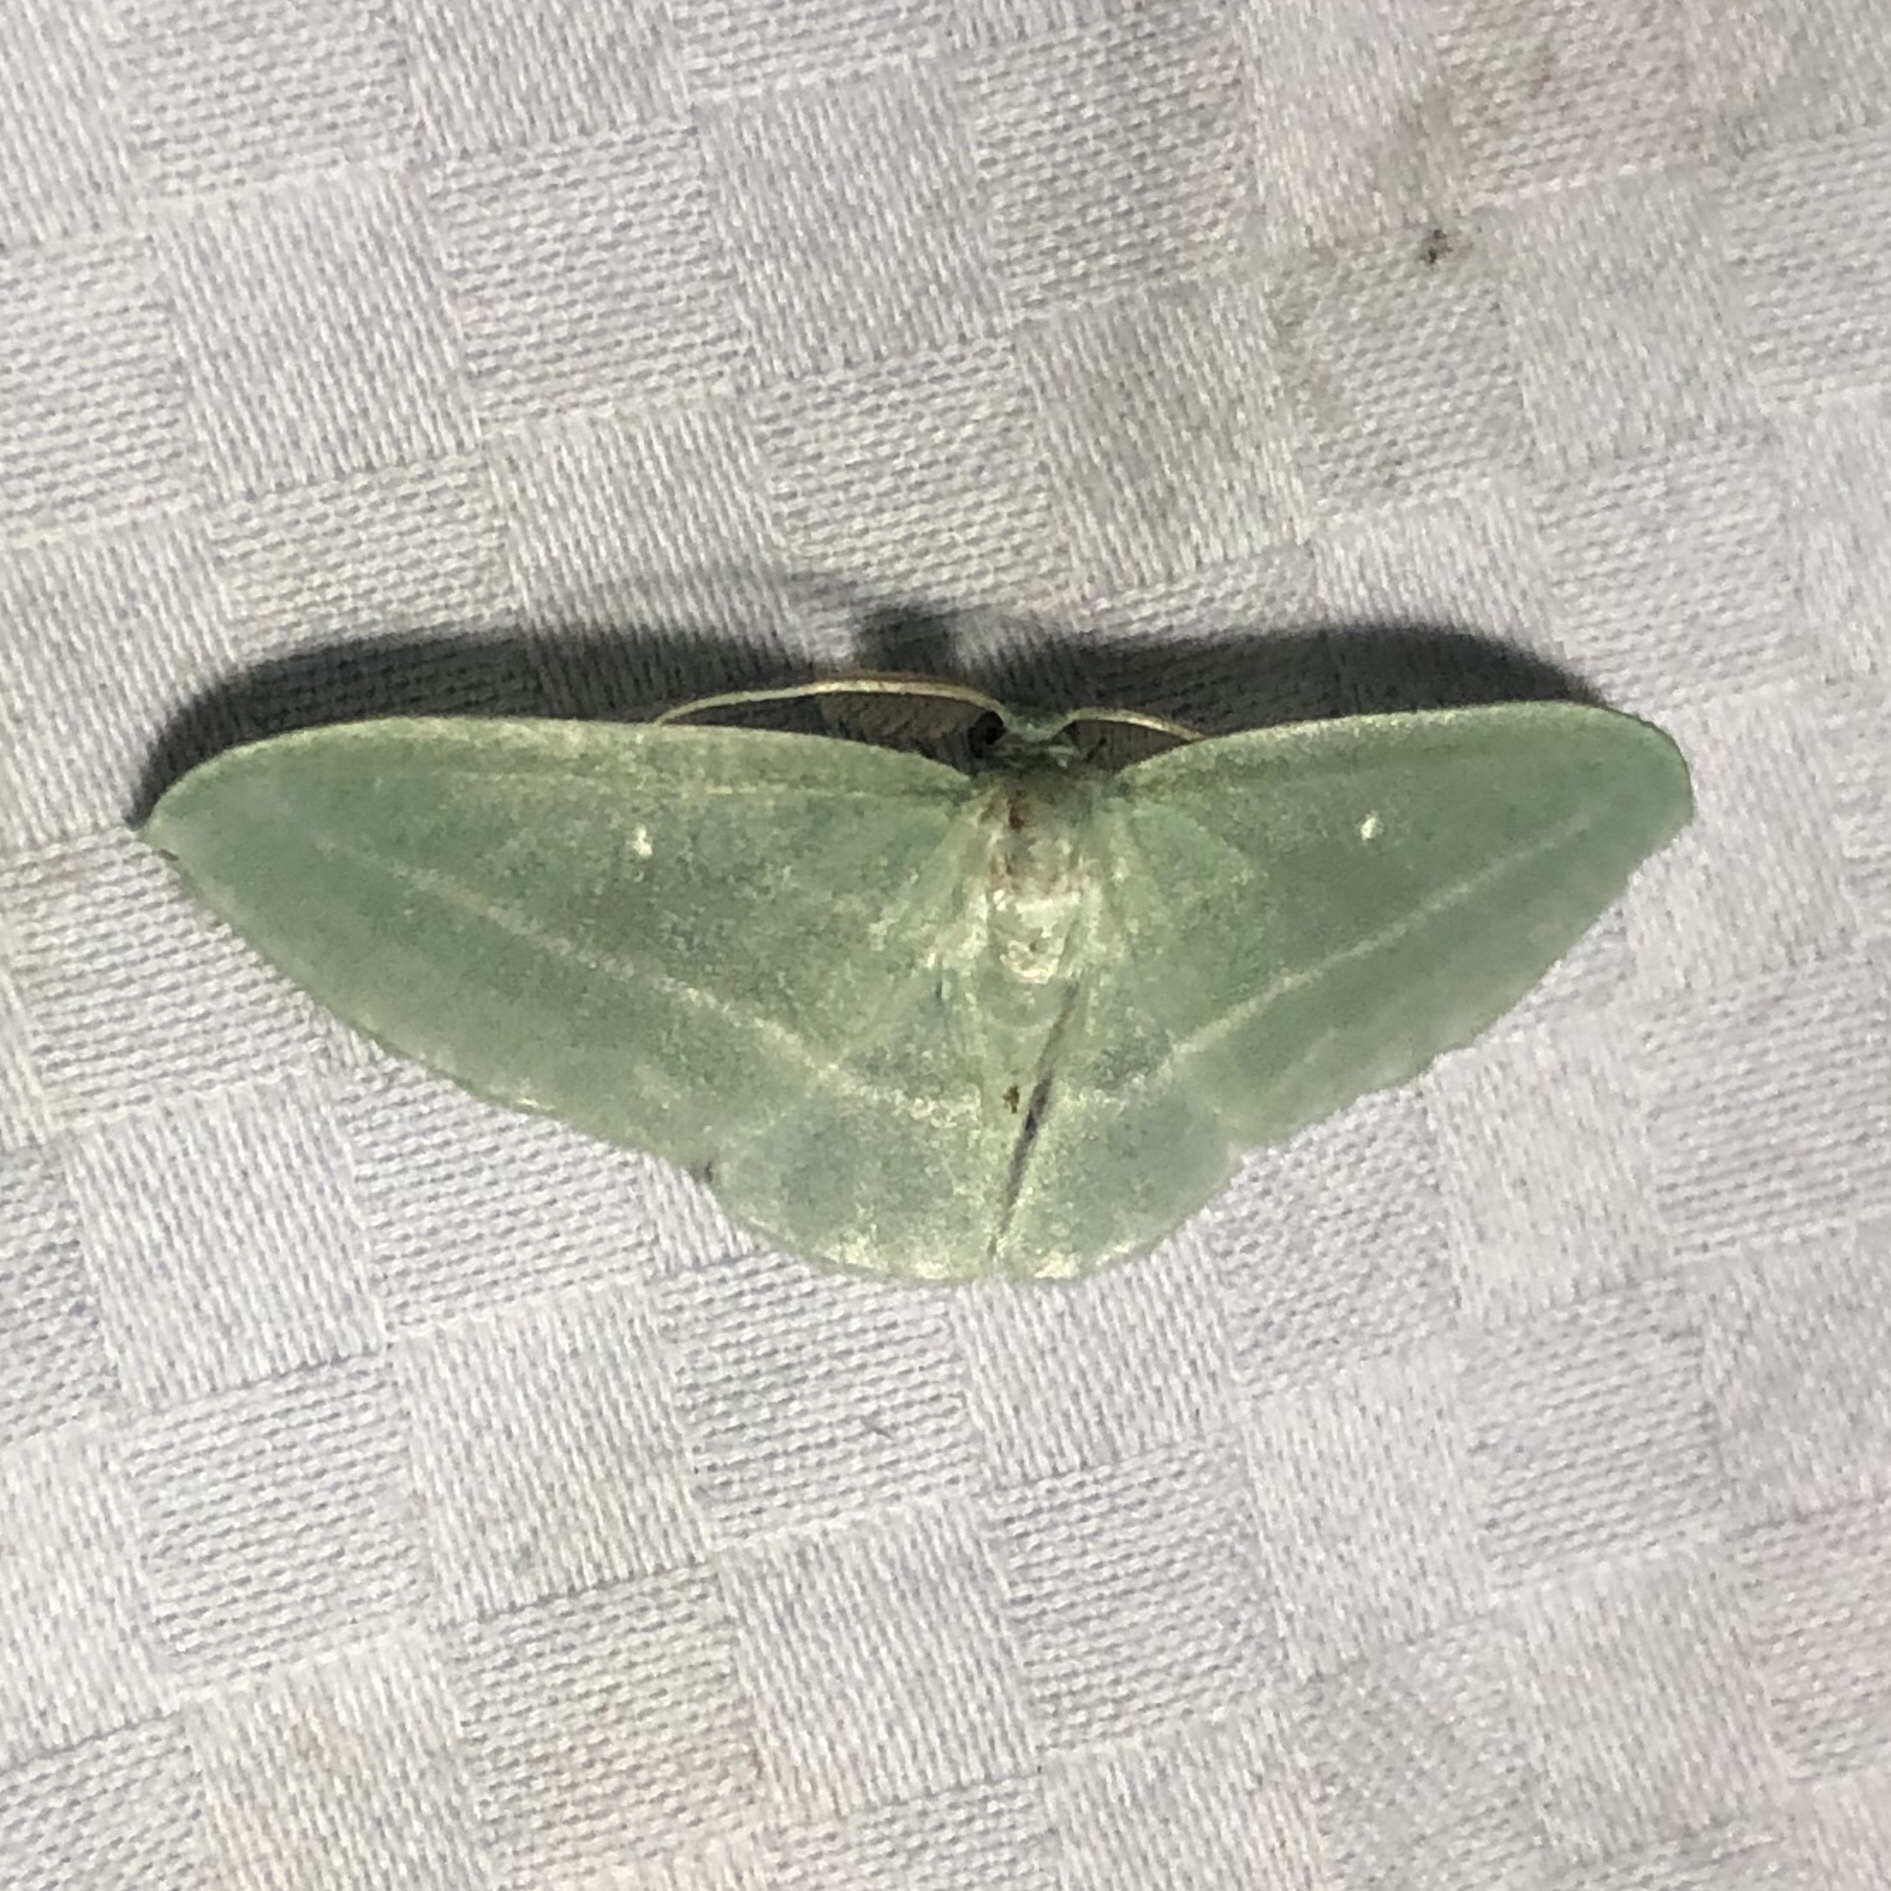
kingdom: Animalia
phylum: Arthropoda
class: Insecta
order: Lepidoptera
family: Geometridae
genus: Dyspteris
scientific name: Dyspteris abortivaria
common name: Bad-wing
